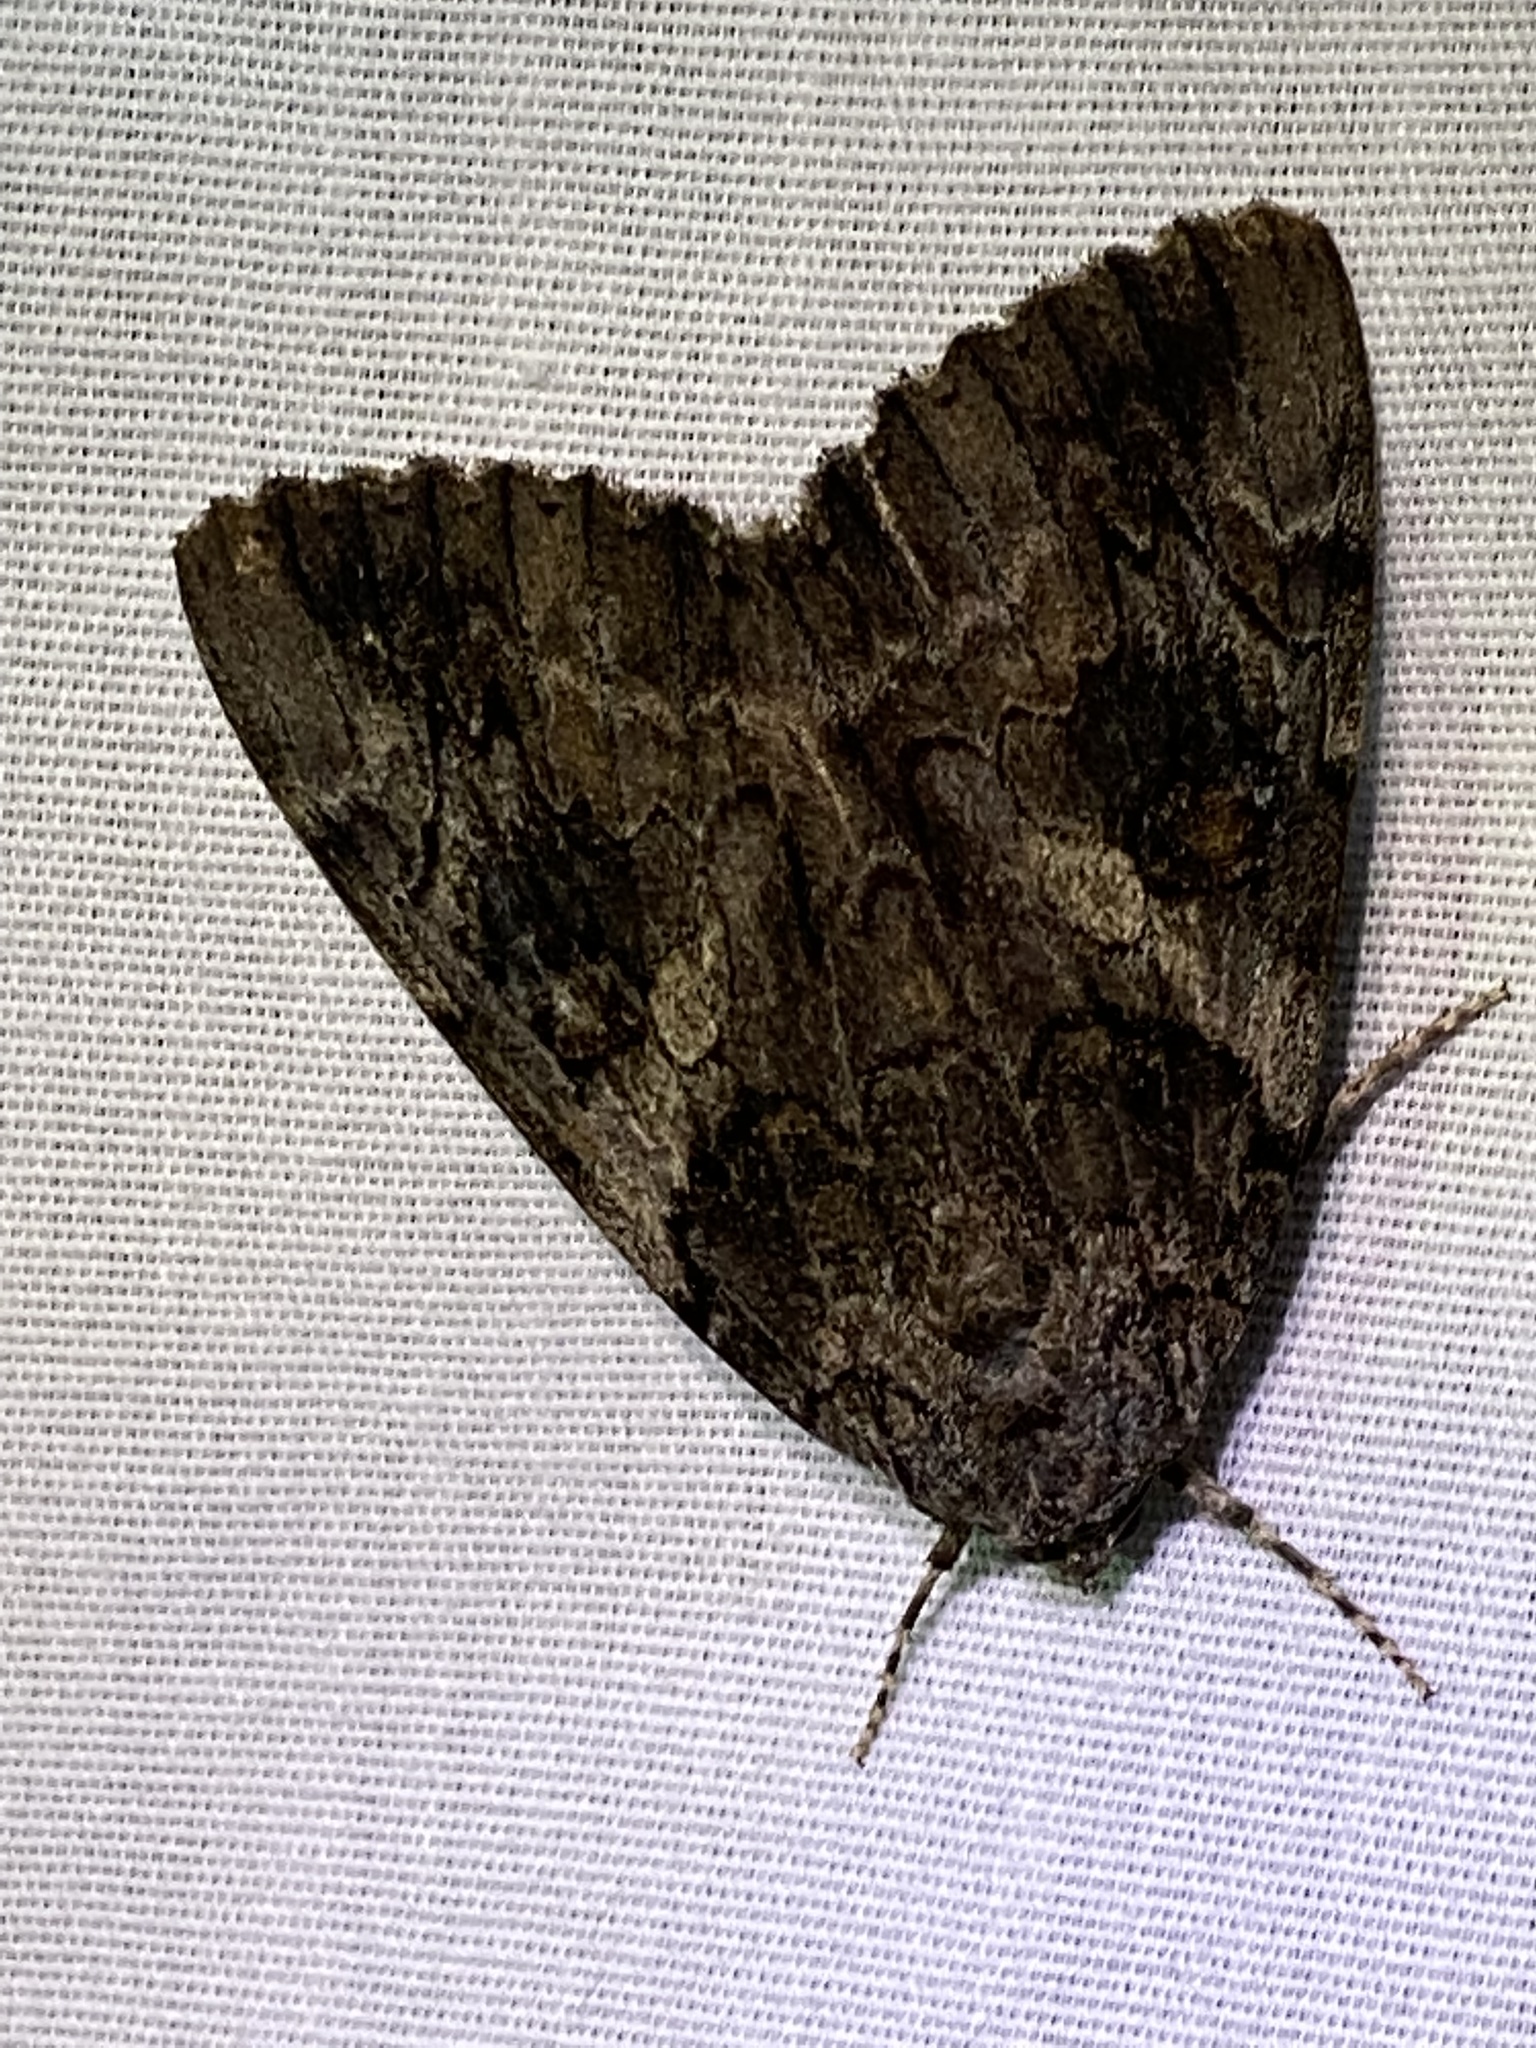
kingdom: Animalia
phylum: Arthropoda
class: Insecta
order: Lepidoptera
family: Erebidae
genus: Catocala
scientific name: Catocala piatrix
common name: The penitent underwing
